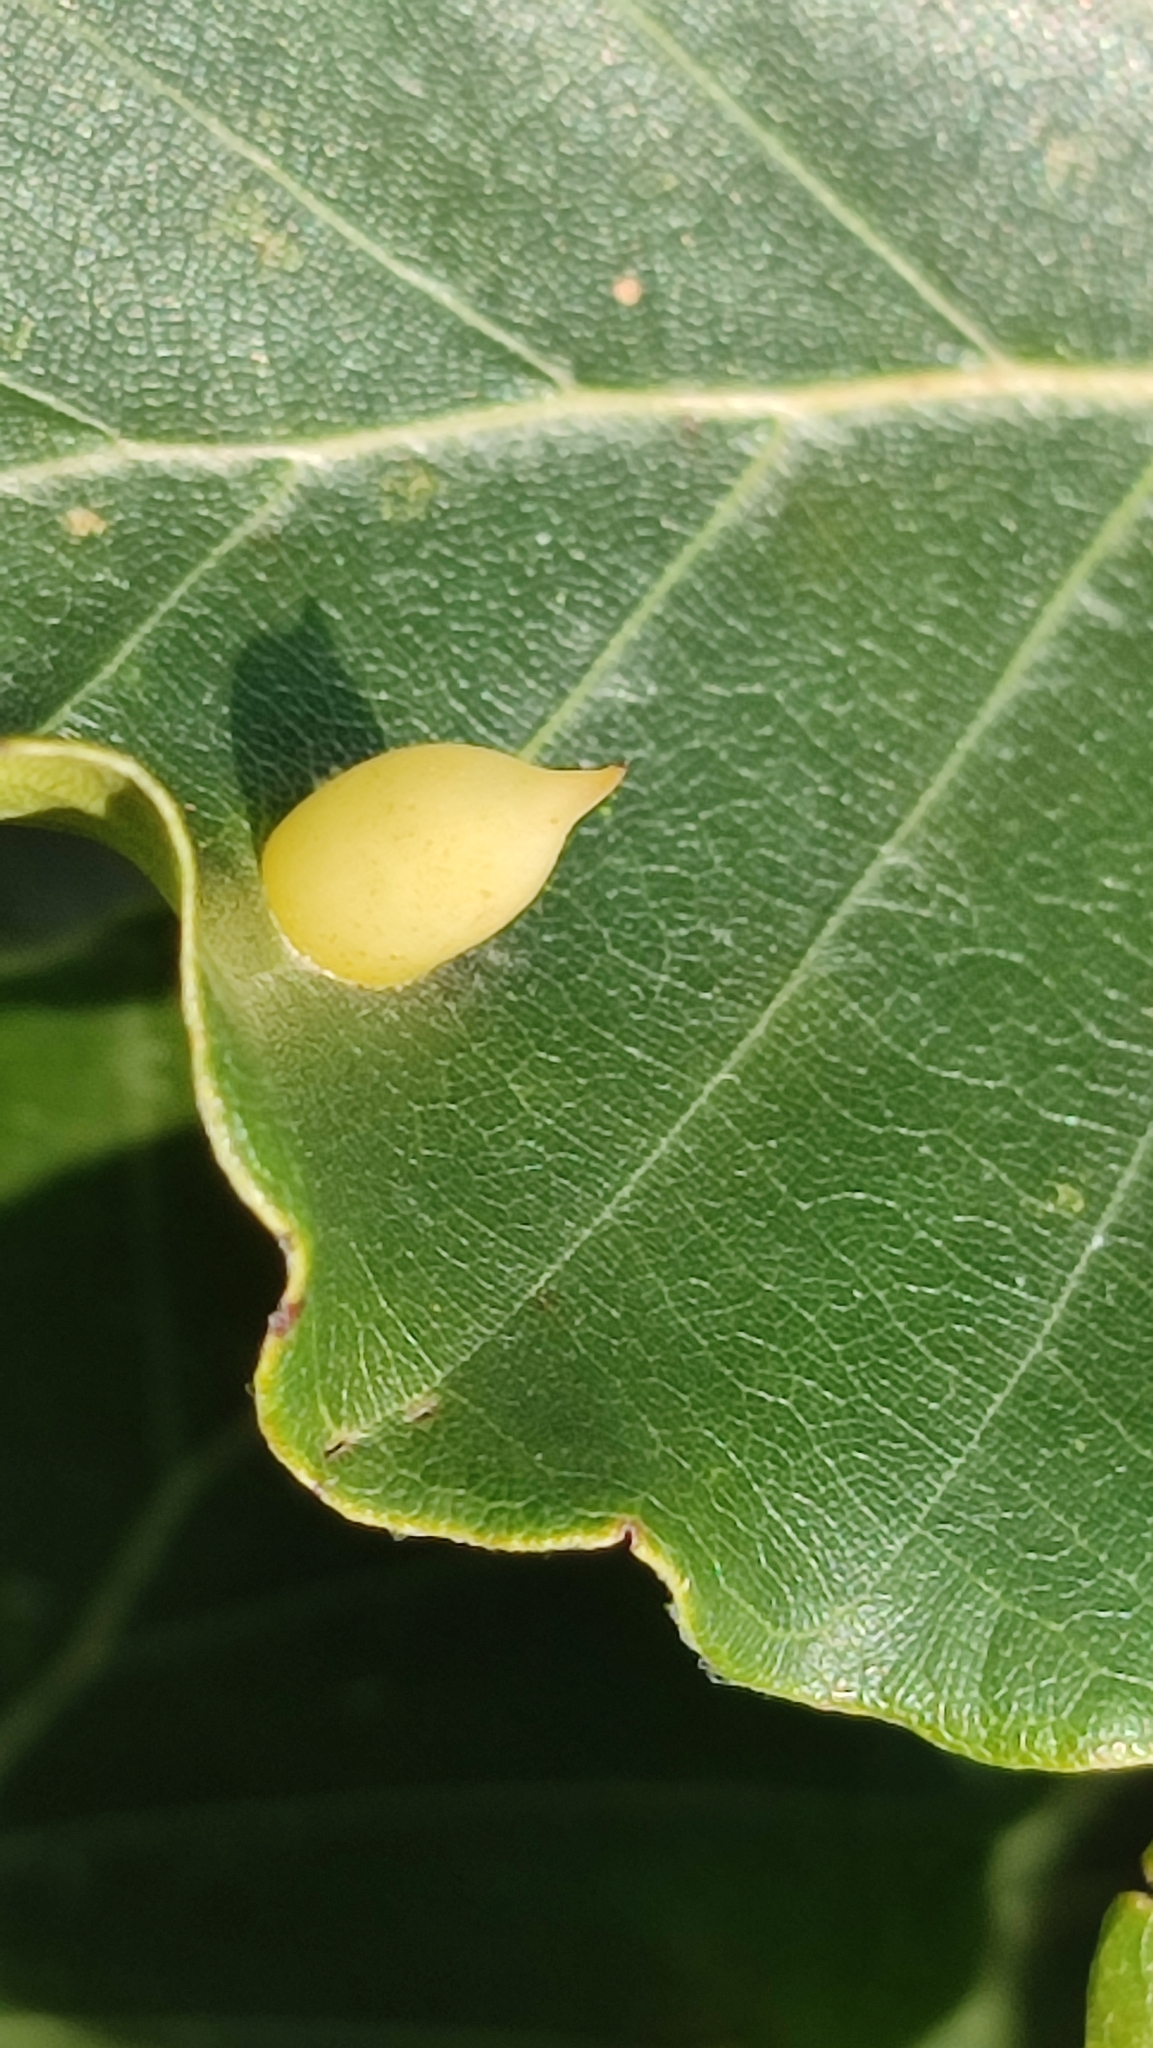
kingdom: Animalia
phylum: Arthropoda
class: Insecta
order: Diptera
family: Cecidomyiidae
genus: Mikiola
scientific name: Mikiola fagi
